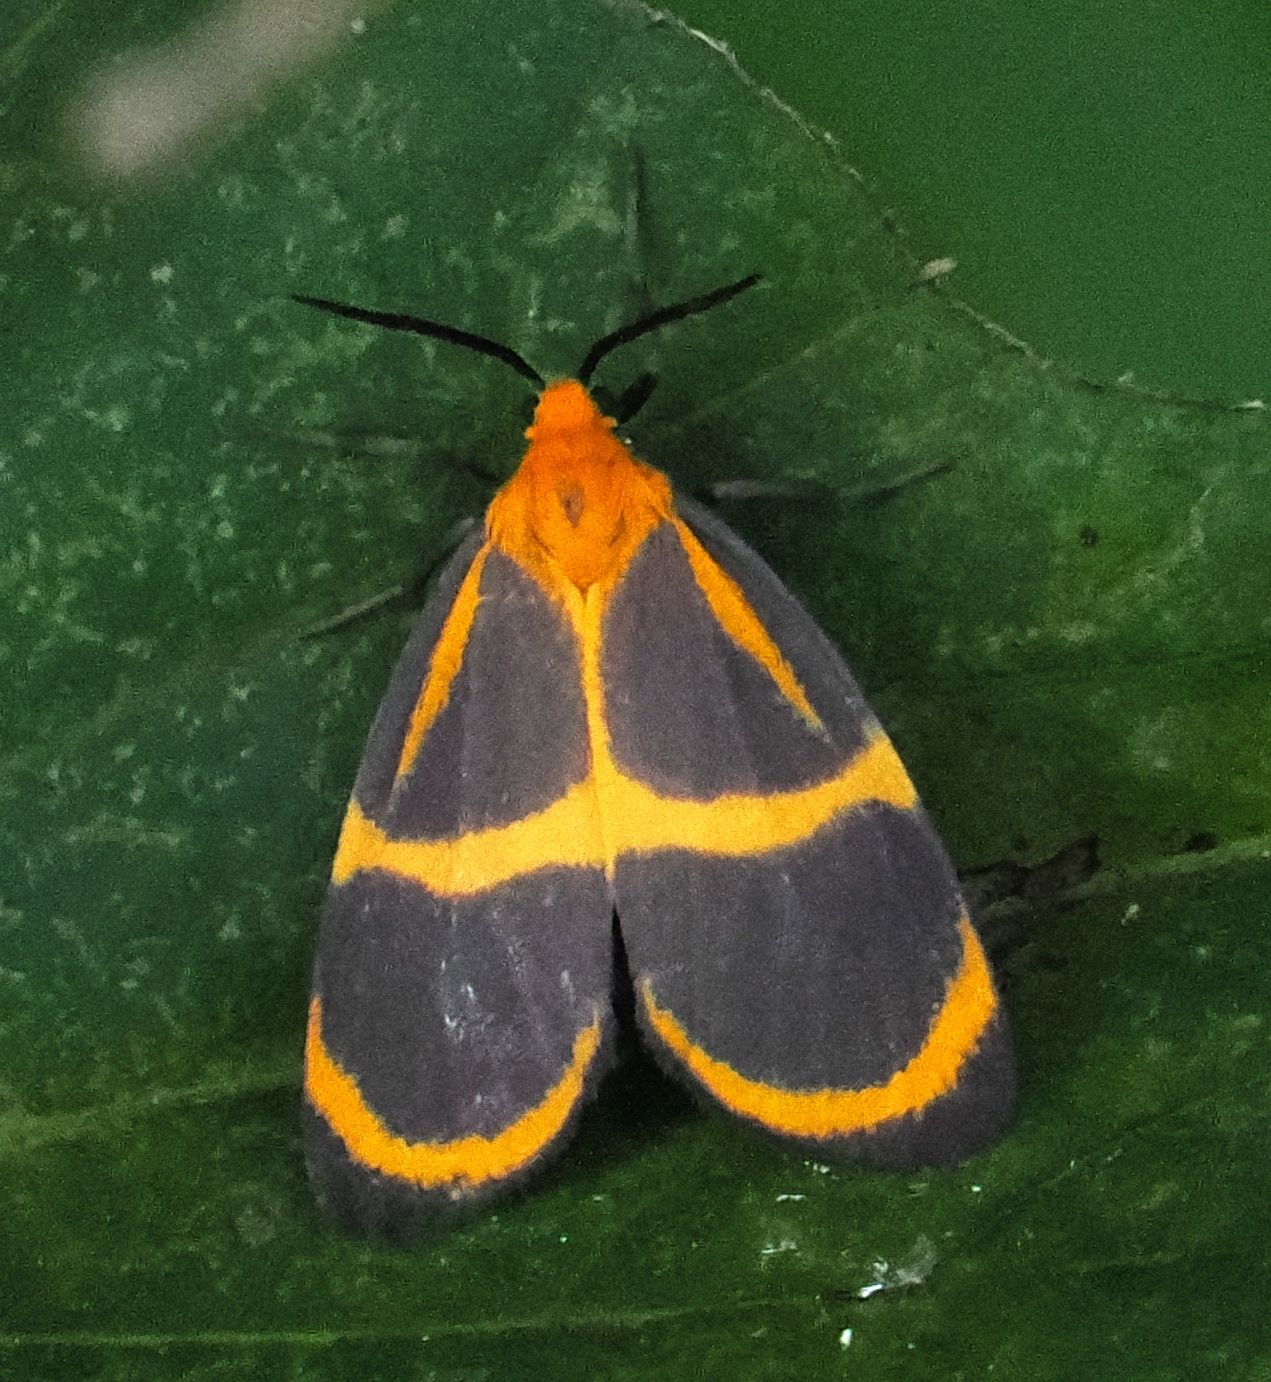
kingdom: Animalia
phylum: Arthropoda
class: Insecta
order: Lepidoptera
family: Erebidae
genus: Eudesmia
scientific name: Eudesmia lunaris
